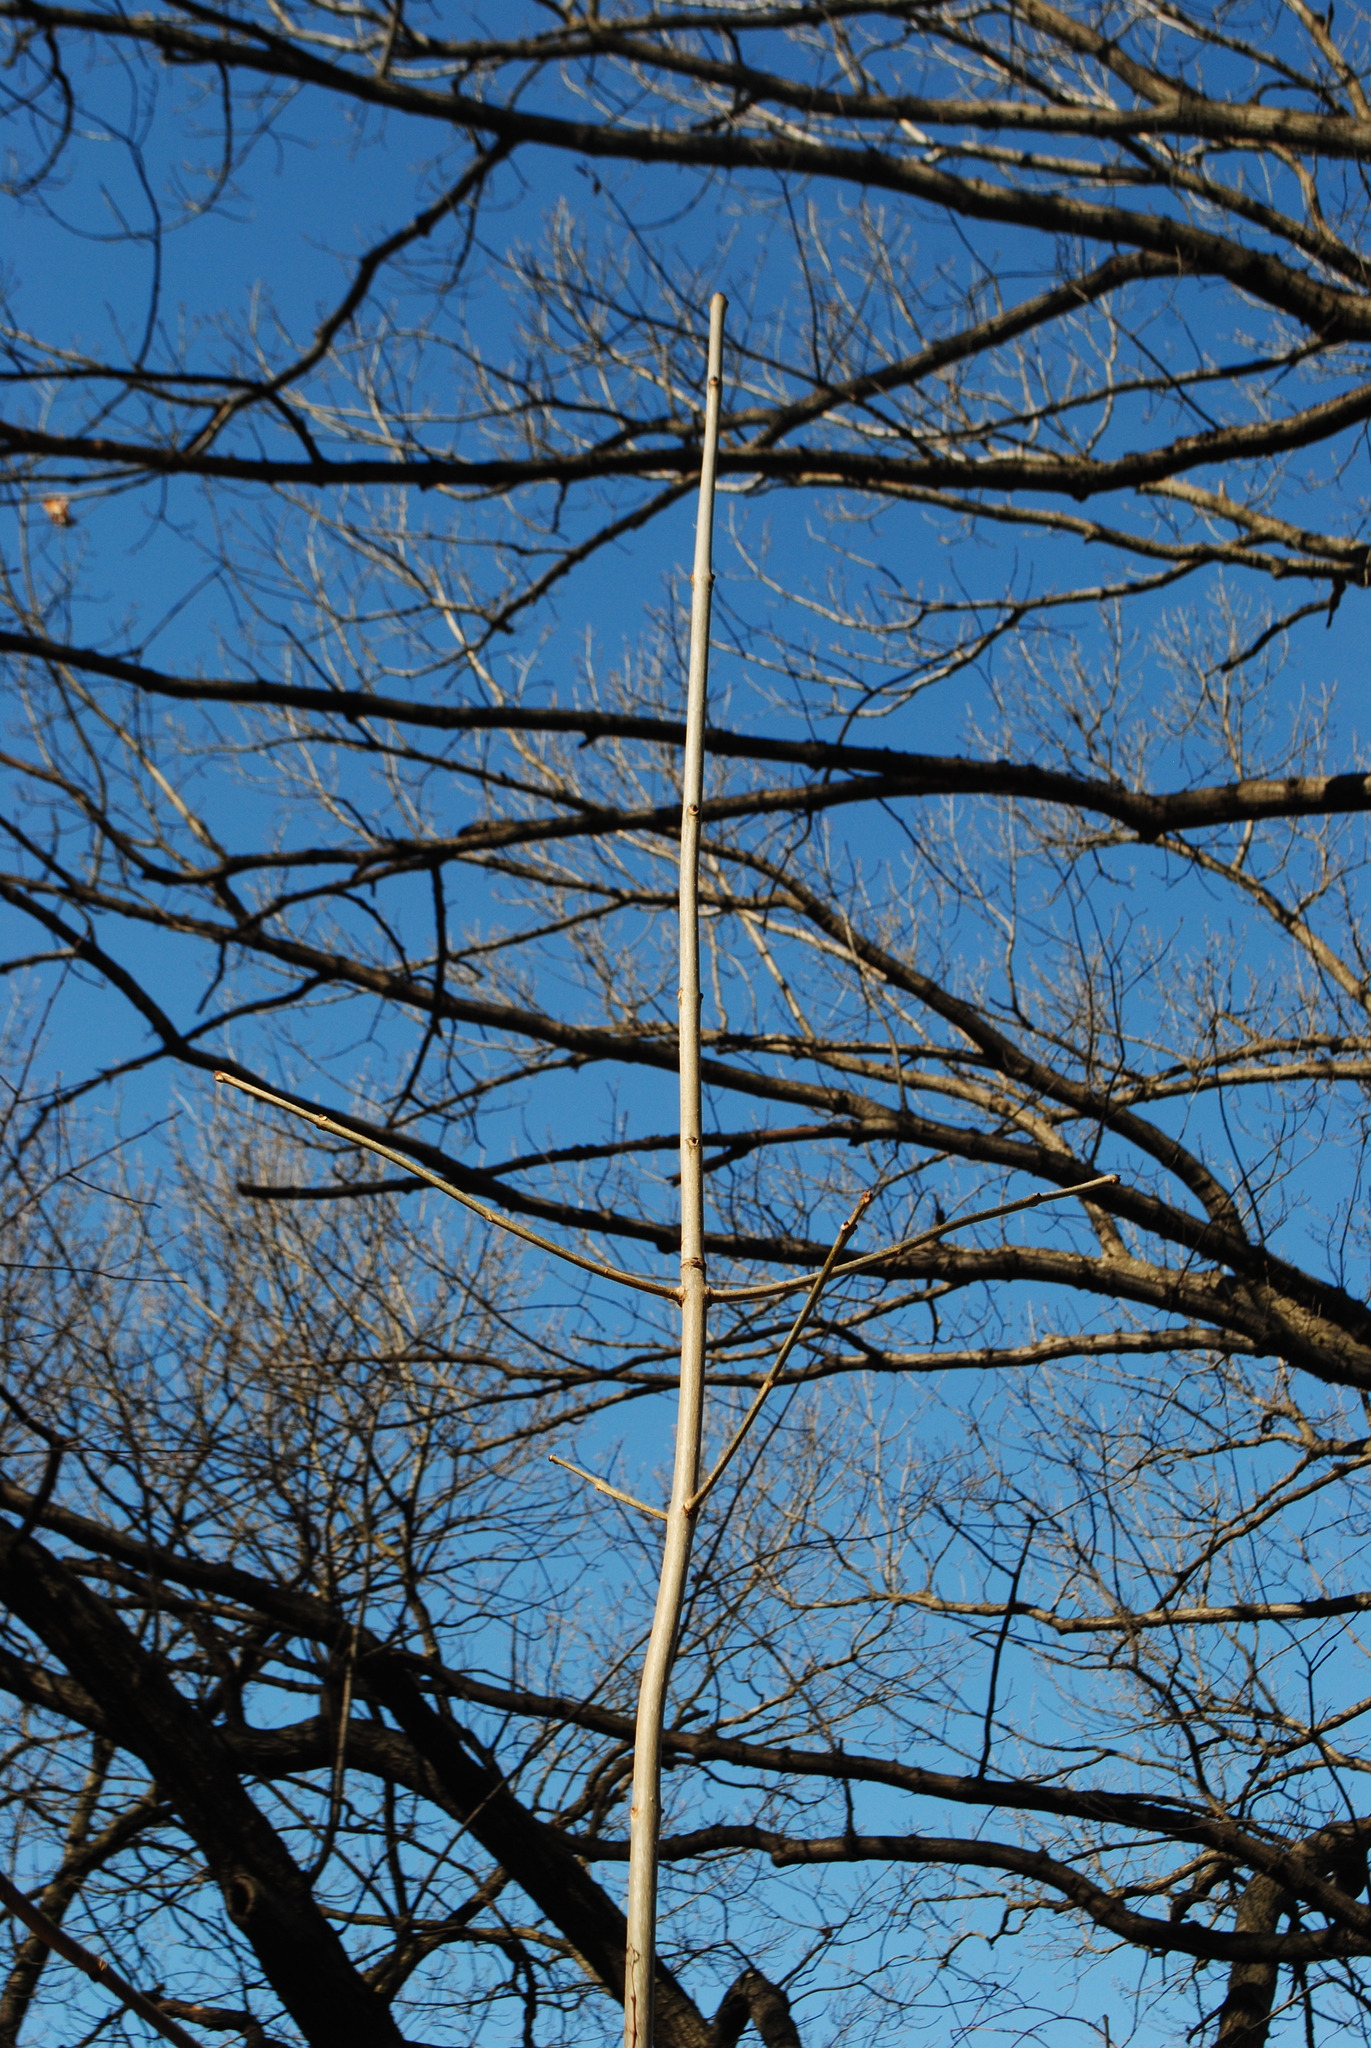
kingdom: Plantae
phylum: Tracheophyta
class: Magnoliopsida
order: Lamiales
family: Oleaceae
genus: Fraxinus
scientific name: Fraxinus americana
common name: White ash
